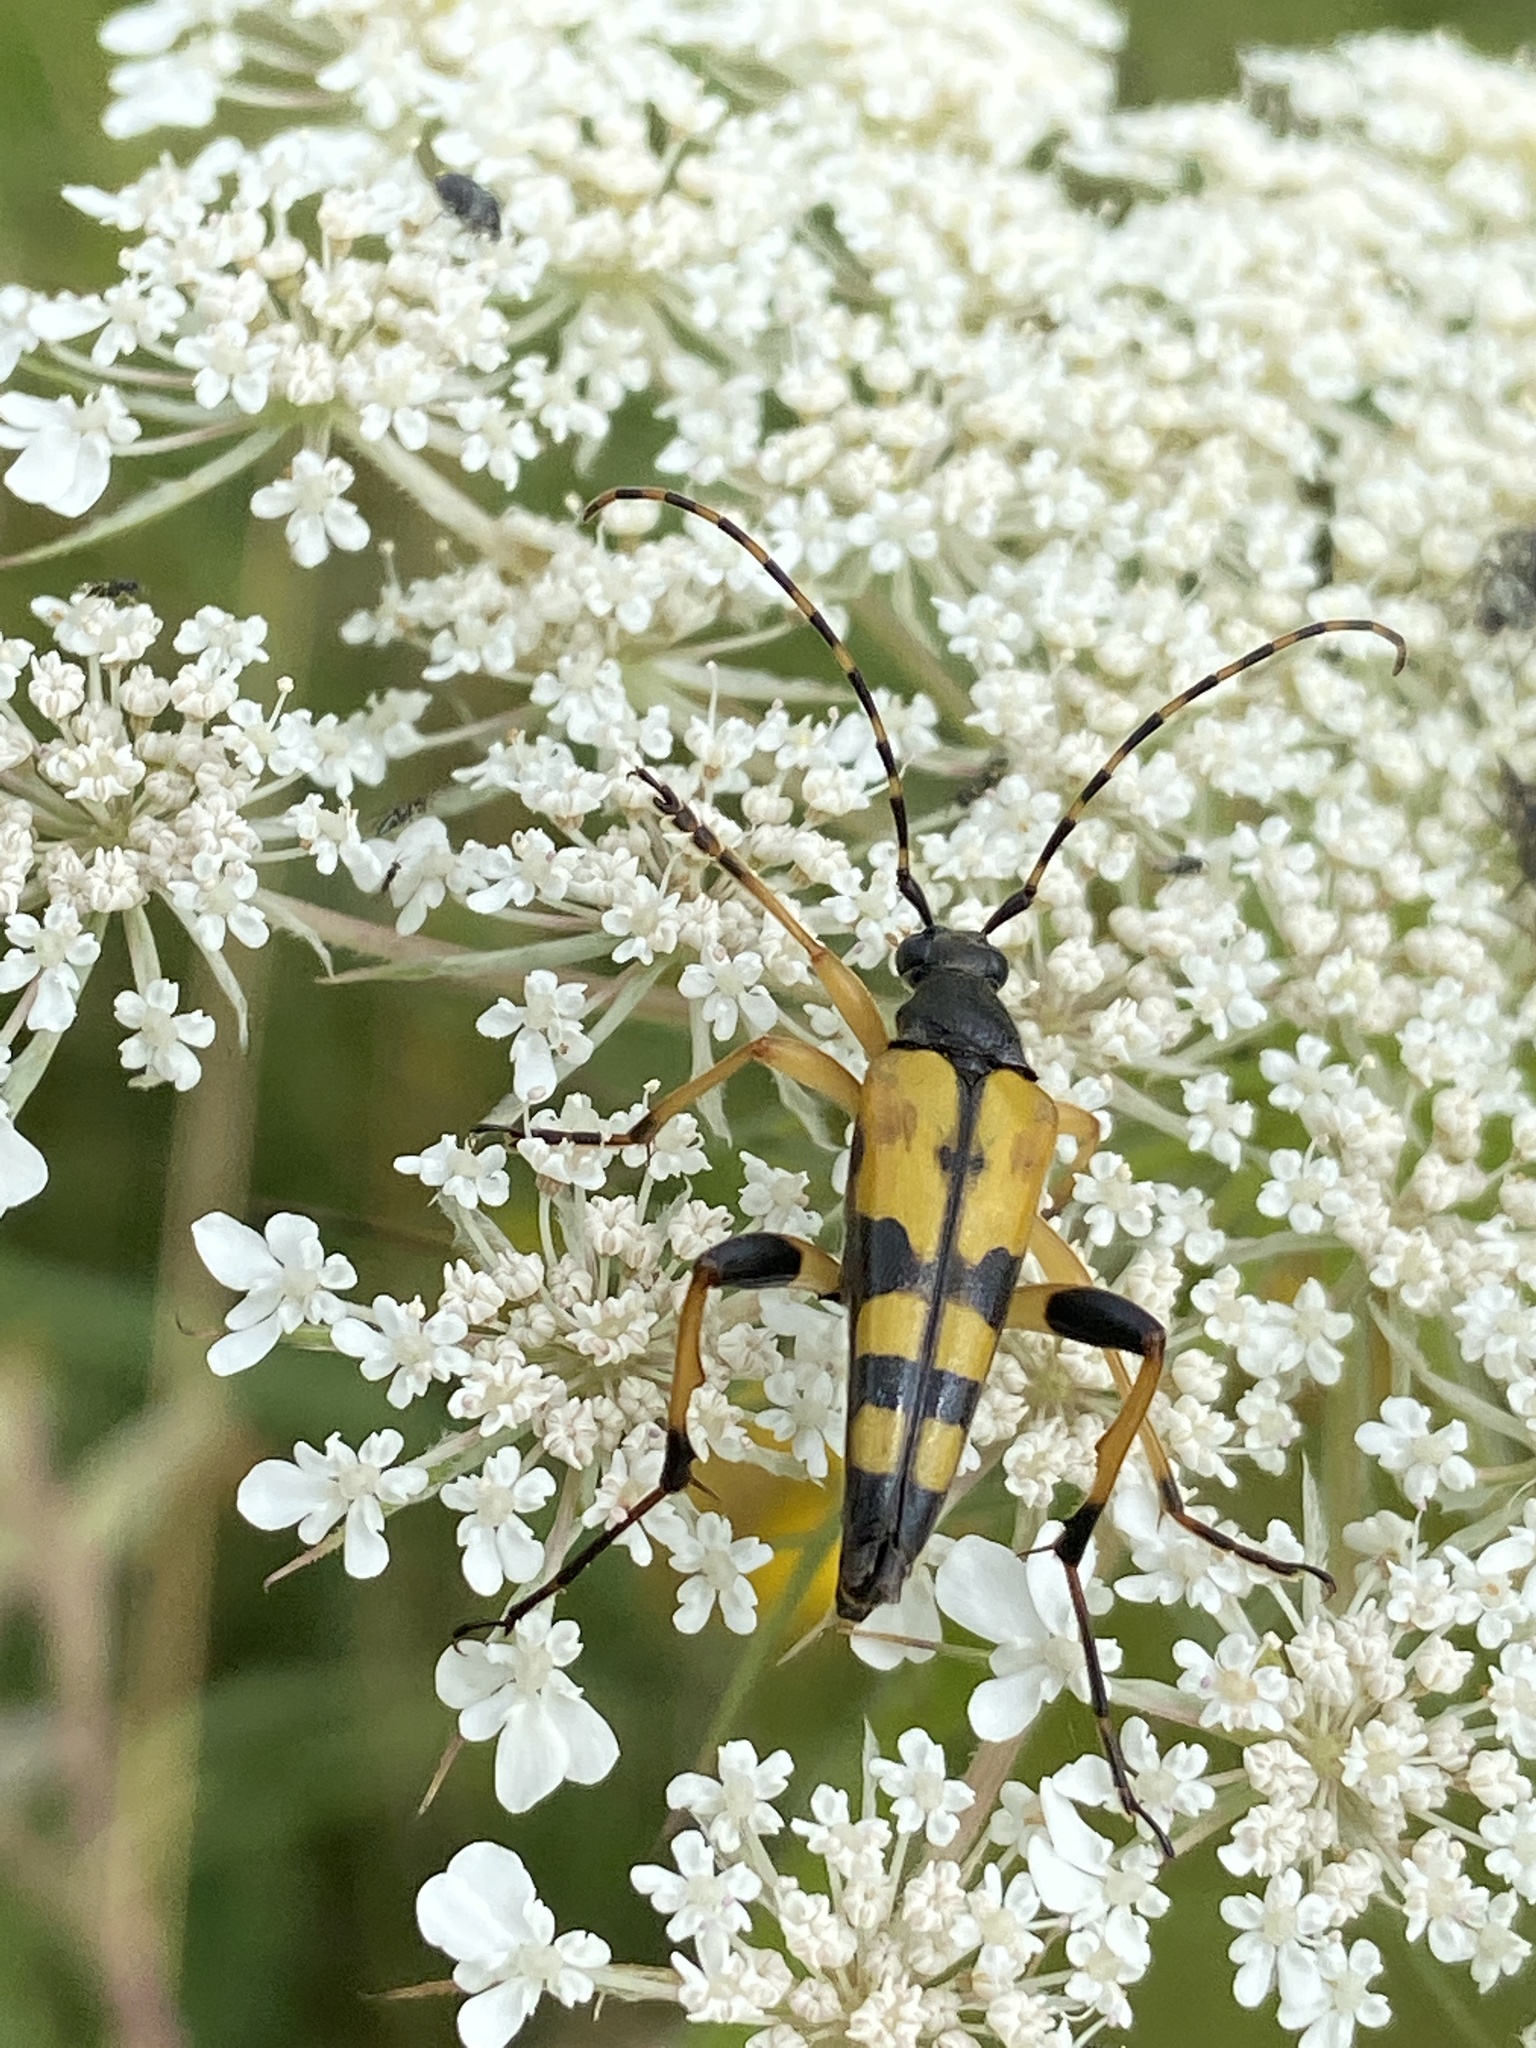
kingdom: Animalia
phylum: Arthropoda
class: Insecta
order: Coleoptera
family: Cerambycidae
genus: Rutpela
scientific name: Rutpela maculata
